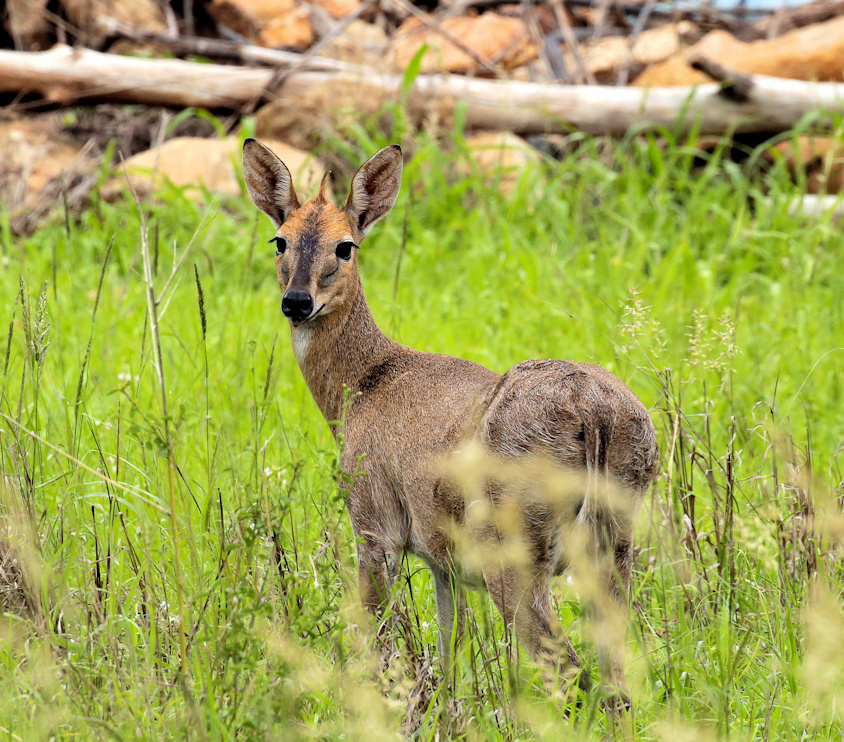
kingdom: Animalia
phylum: Chordata
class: Mammalia
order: Artiodactyla
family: Bovidae
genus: Sylvicapra
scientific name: Sylvicapra grimmia
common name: Bush duiker
